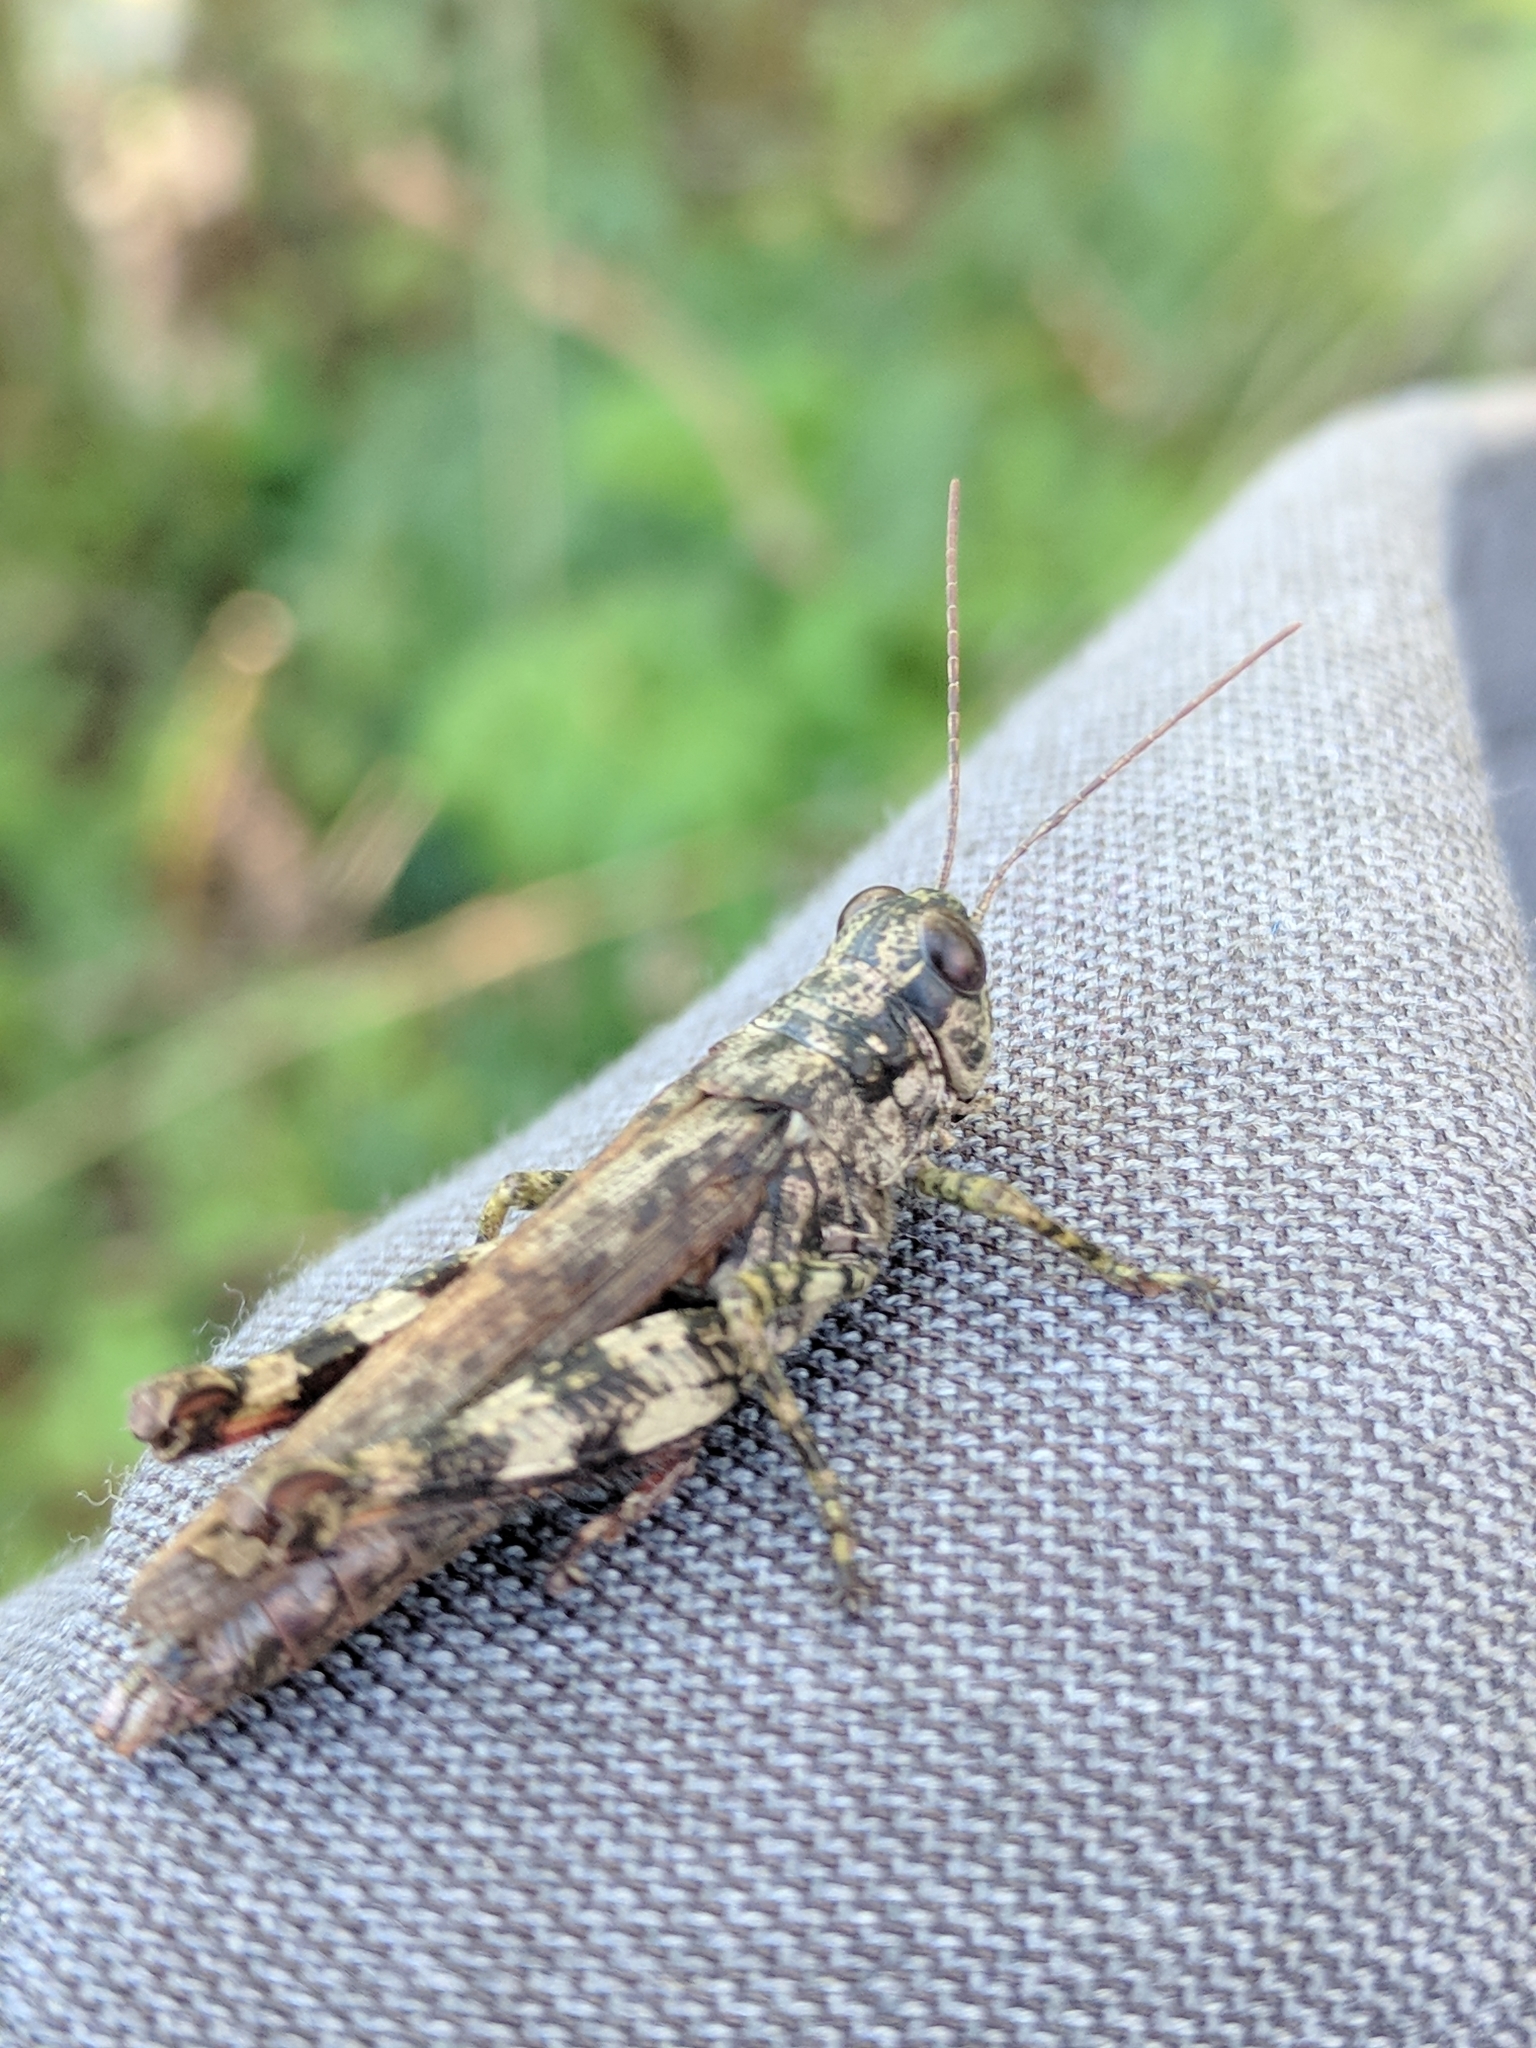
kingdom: Animalia
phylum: Arthropoda
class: Insecta
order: Orthoptera
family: Acrididae
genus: Melanoplus
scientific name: Melanoplus punctulatus
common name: Pine-tree spur-throat grasshopper
